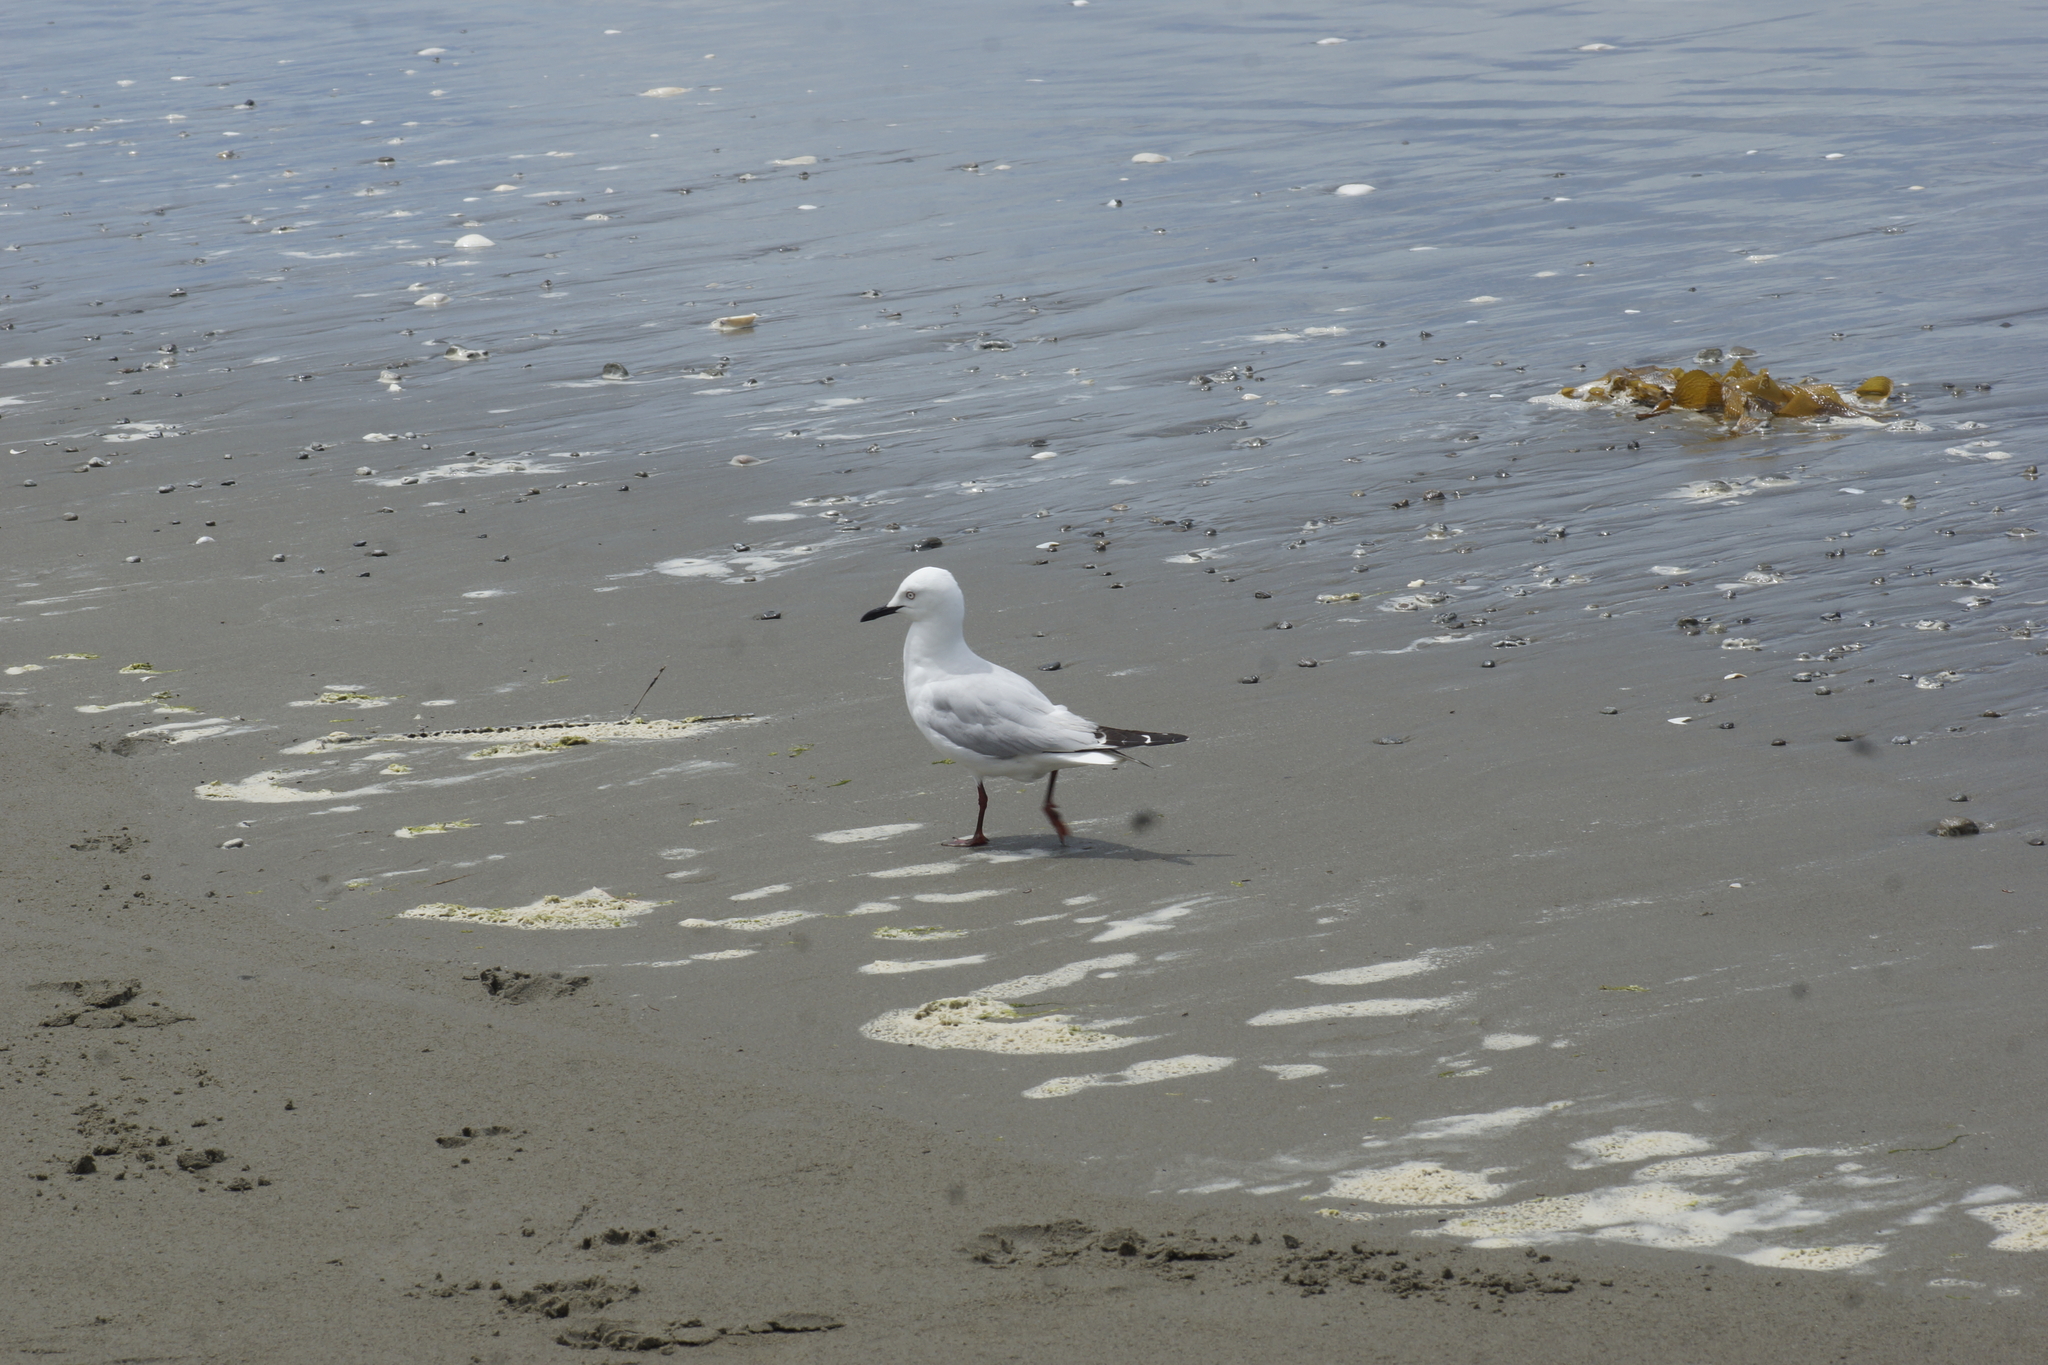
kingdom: Animalia
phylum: Chordata
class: Aves
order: Charadriiformes
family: Laridae
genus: Chroicocephalus
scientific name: Chroicocephalus bulleri
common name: Black-billed gull
